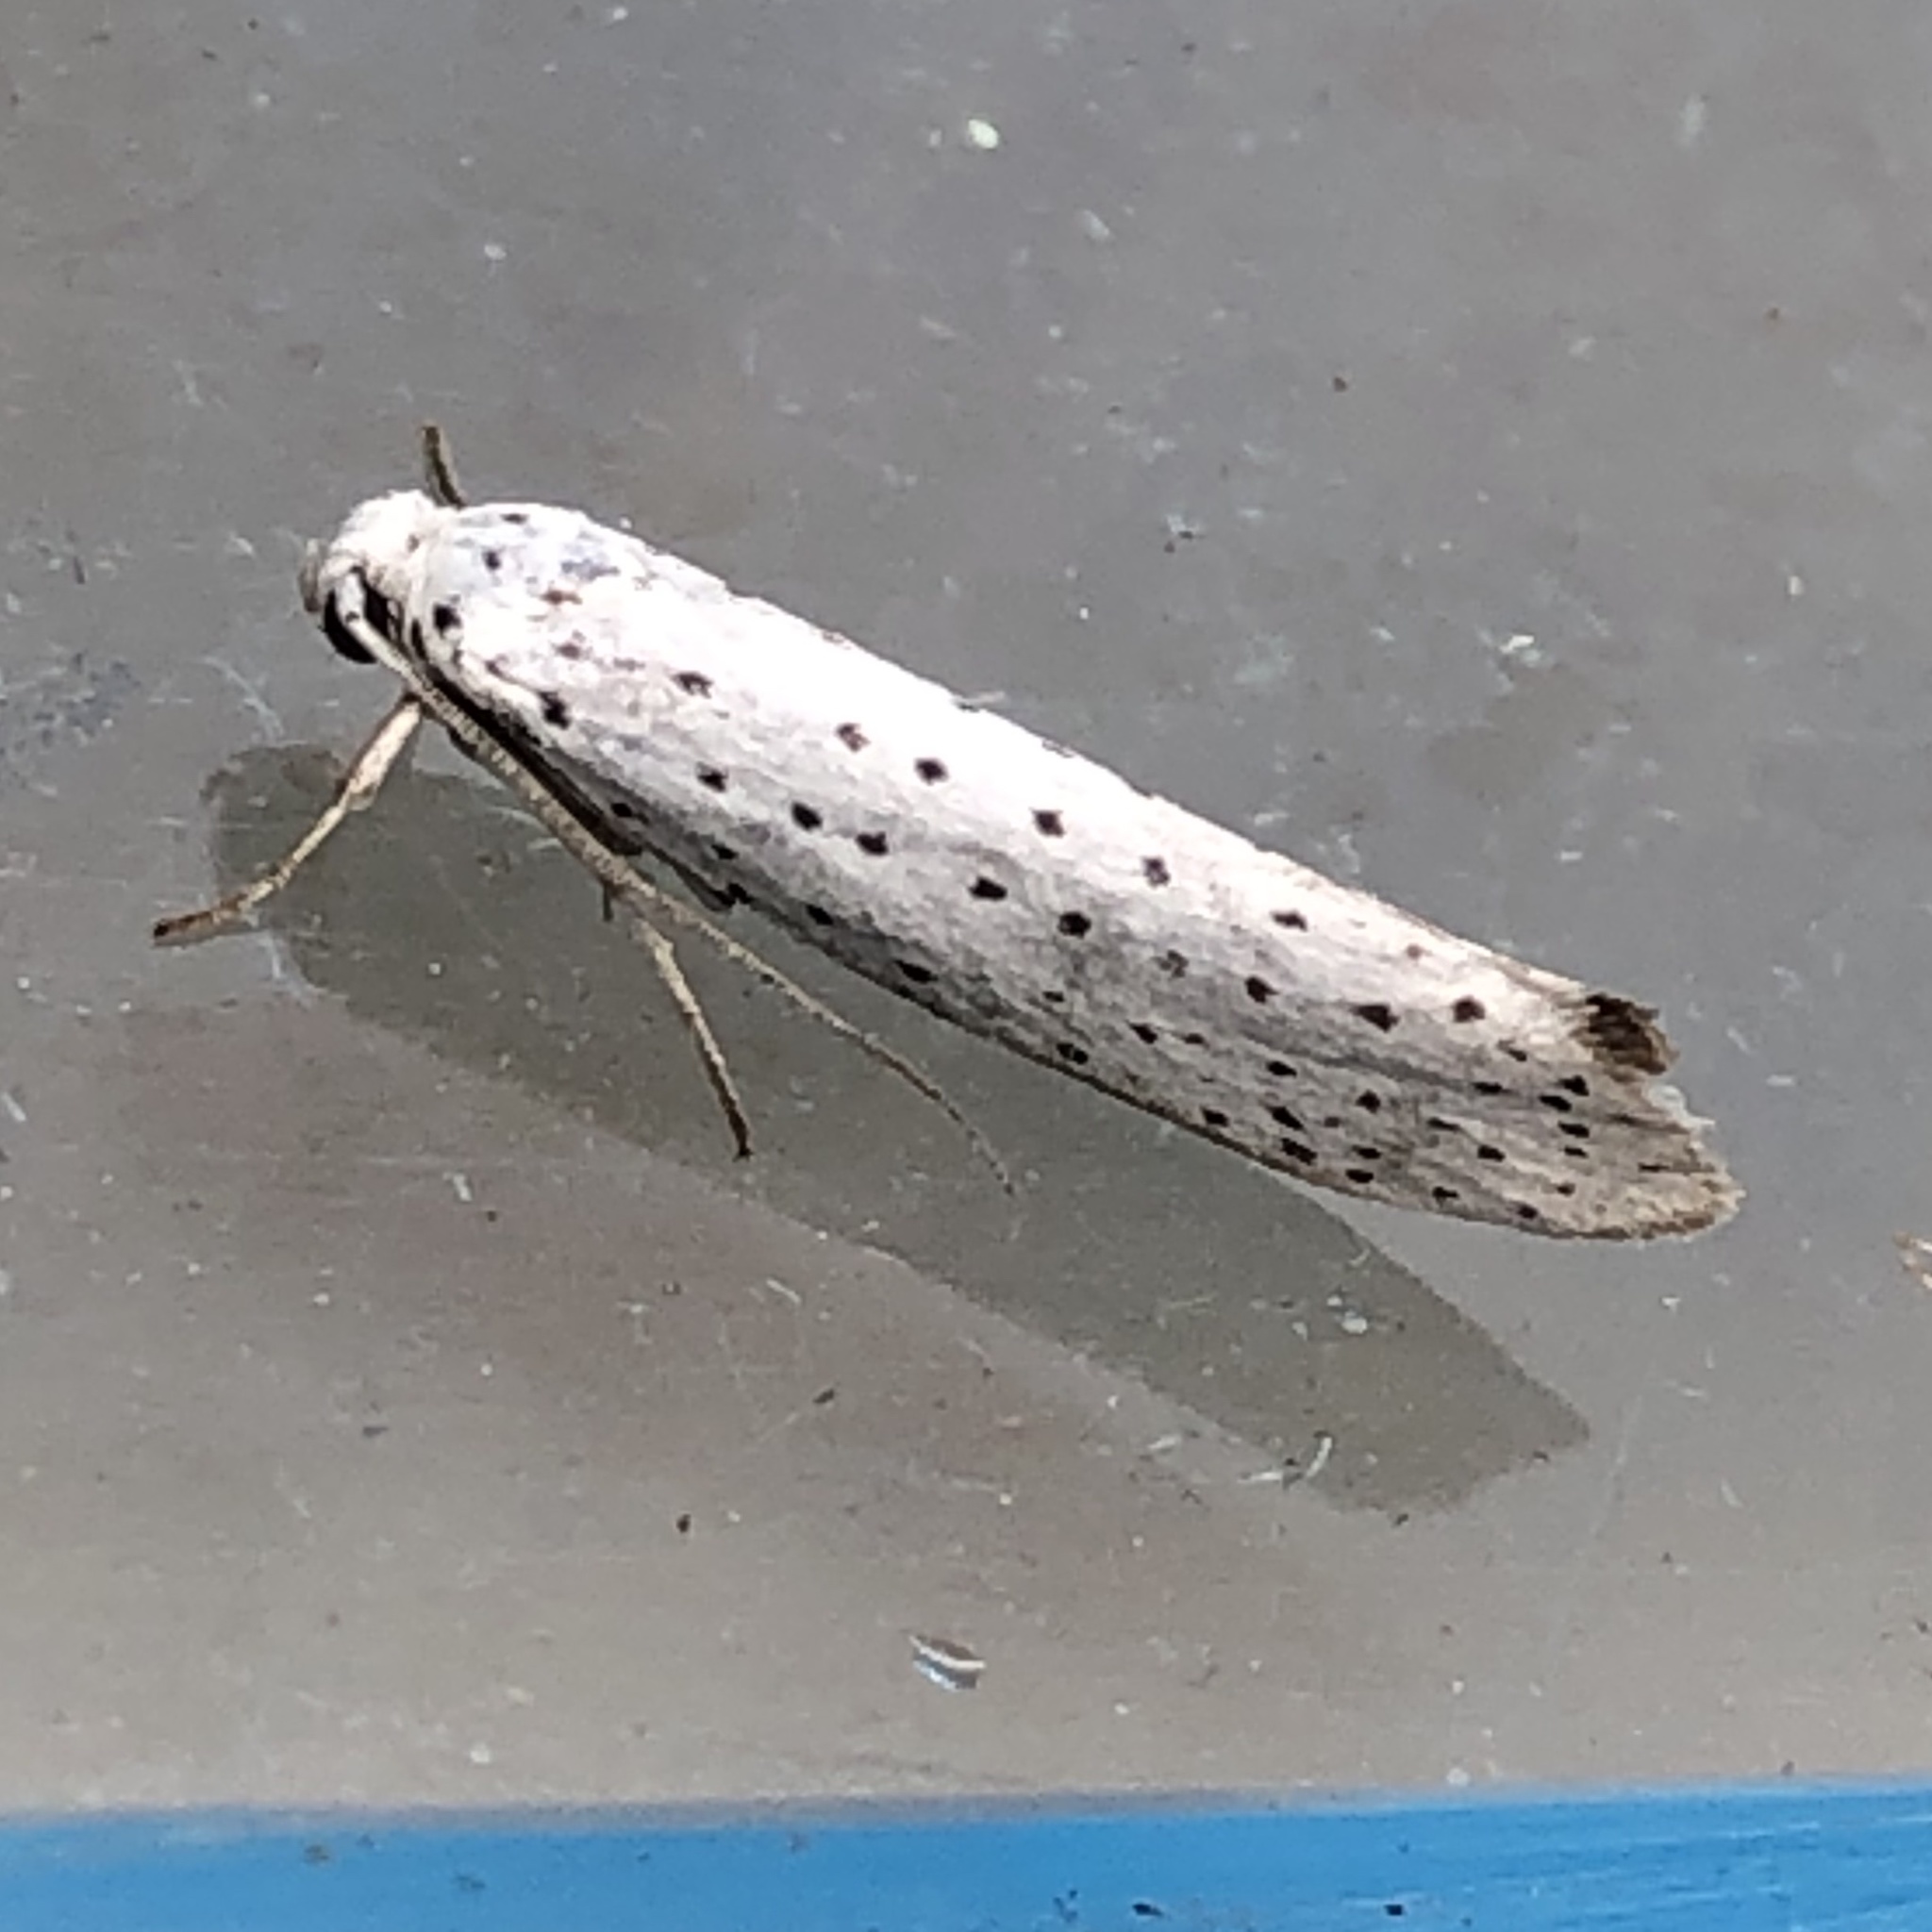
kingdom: Animalia
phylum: Arthropoda
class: Insecta
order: Lepidoptera
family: Yponomeutidae
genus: Yponomeuta
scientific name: Yponomeuta evonymella
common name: Bird-cherry ermine
